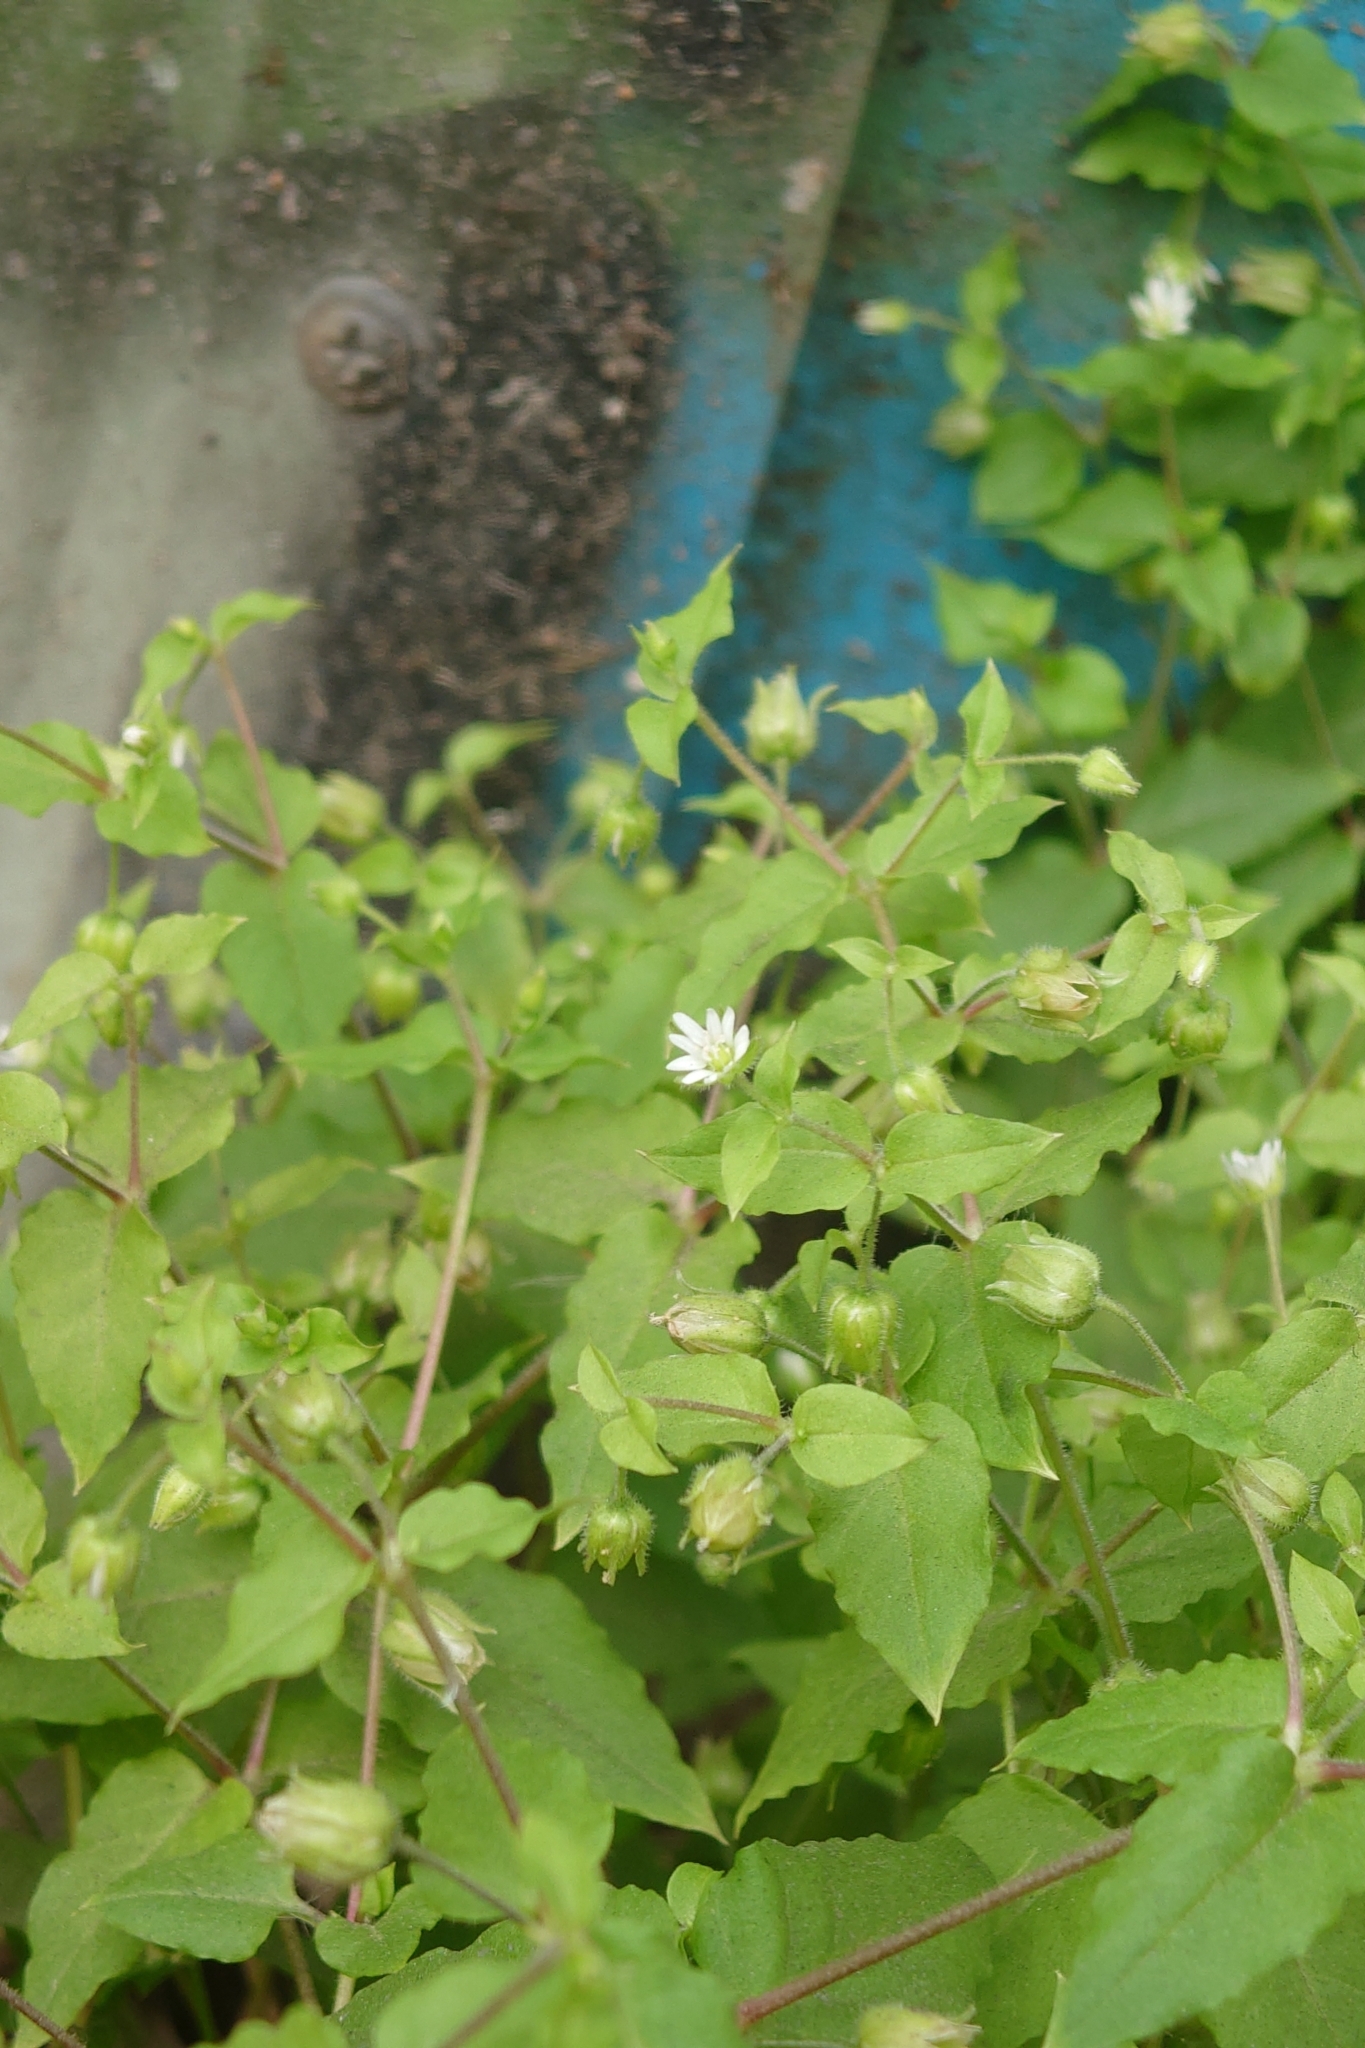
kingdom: Plantae
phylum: Tracheophyta
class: Magnoliopsida
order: Caryophyllales
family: Caryophyllaceae
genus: Stellaria
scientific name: Stellaria aquatica
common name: Water chickweed
